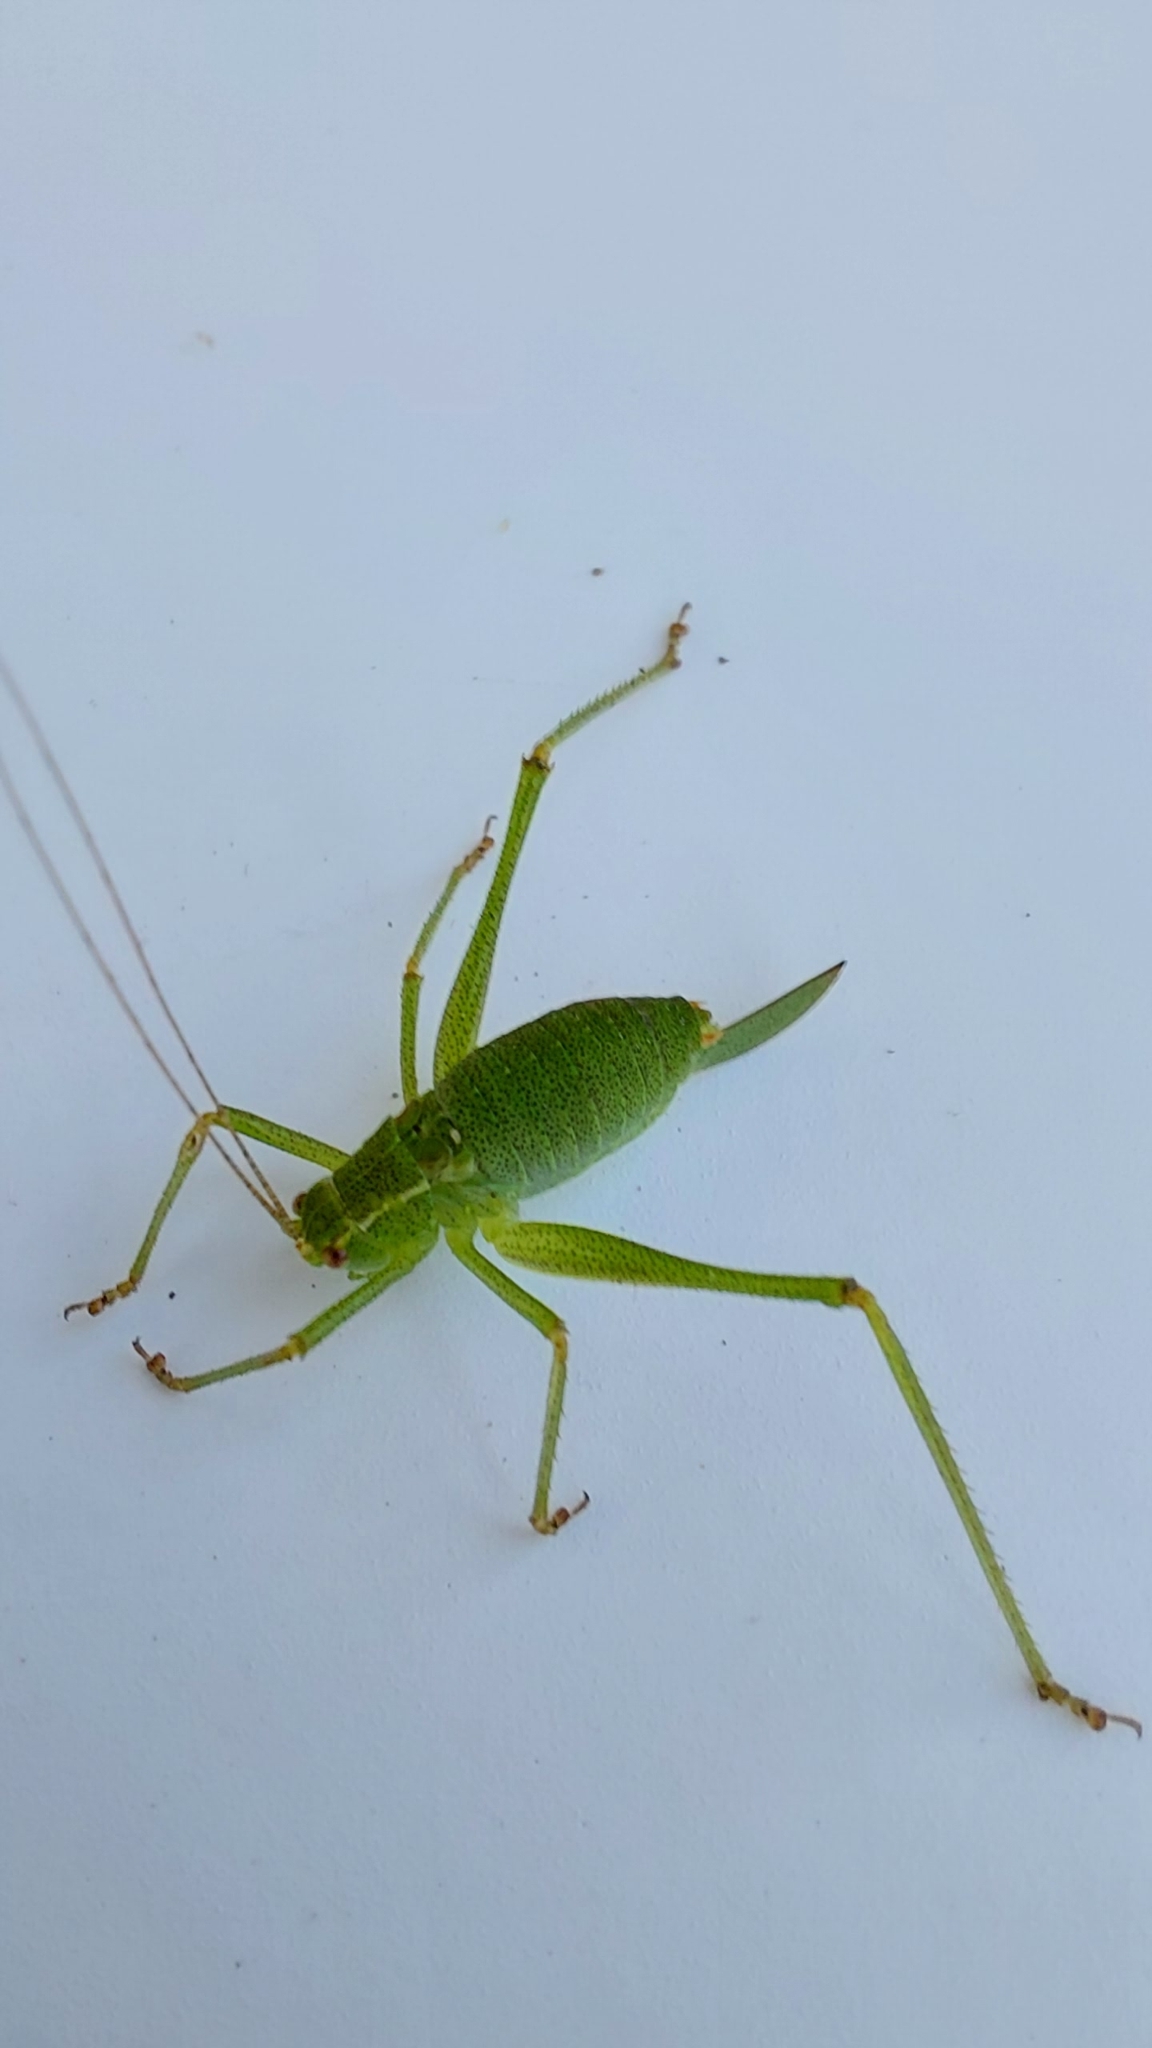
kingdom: Animalia
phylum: Arthropoda
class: Insecta
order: Orthoptera
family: Tettigoniidae
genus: Leptophyes
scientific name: Leptophyes punctatissima
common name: Speckled bush-cricket
